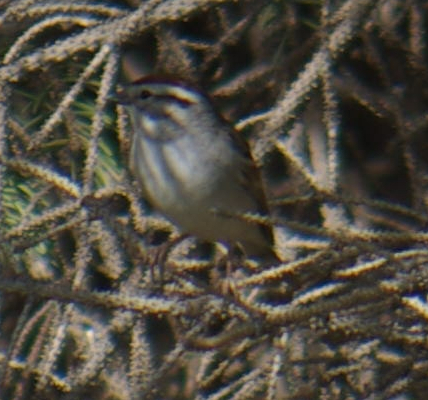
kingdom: Animalia
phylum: Chordata
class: Aves
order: Passeriformes
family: Passerellidae
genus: Spizella
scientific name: Spizella passerina
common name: Chipping sparrow
